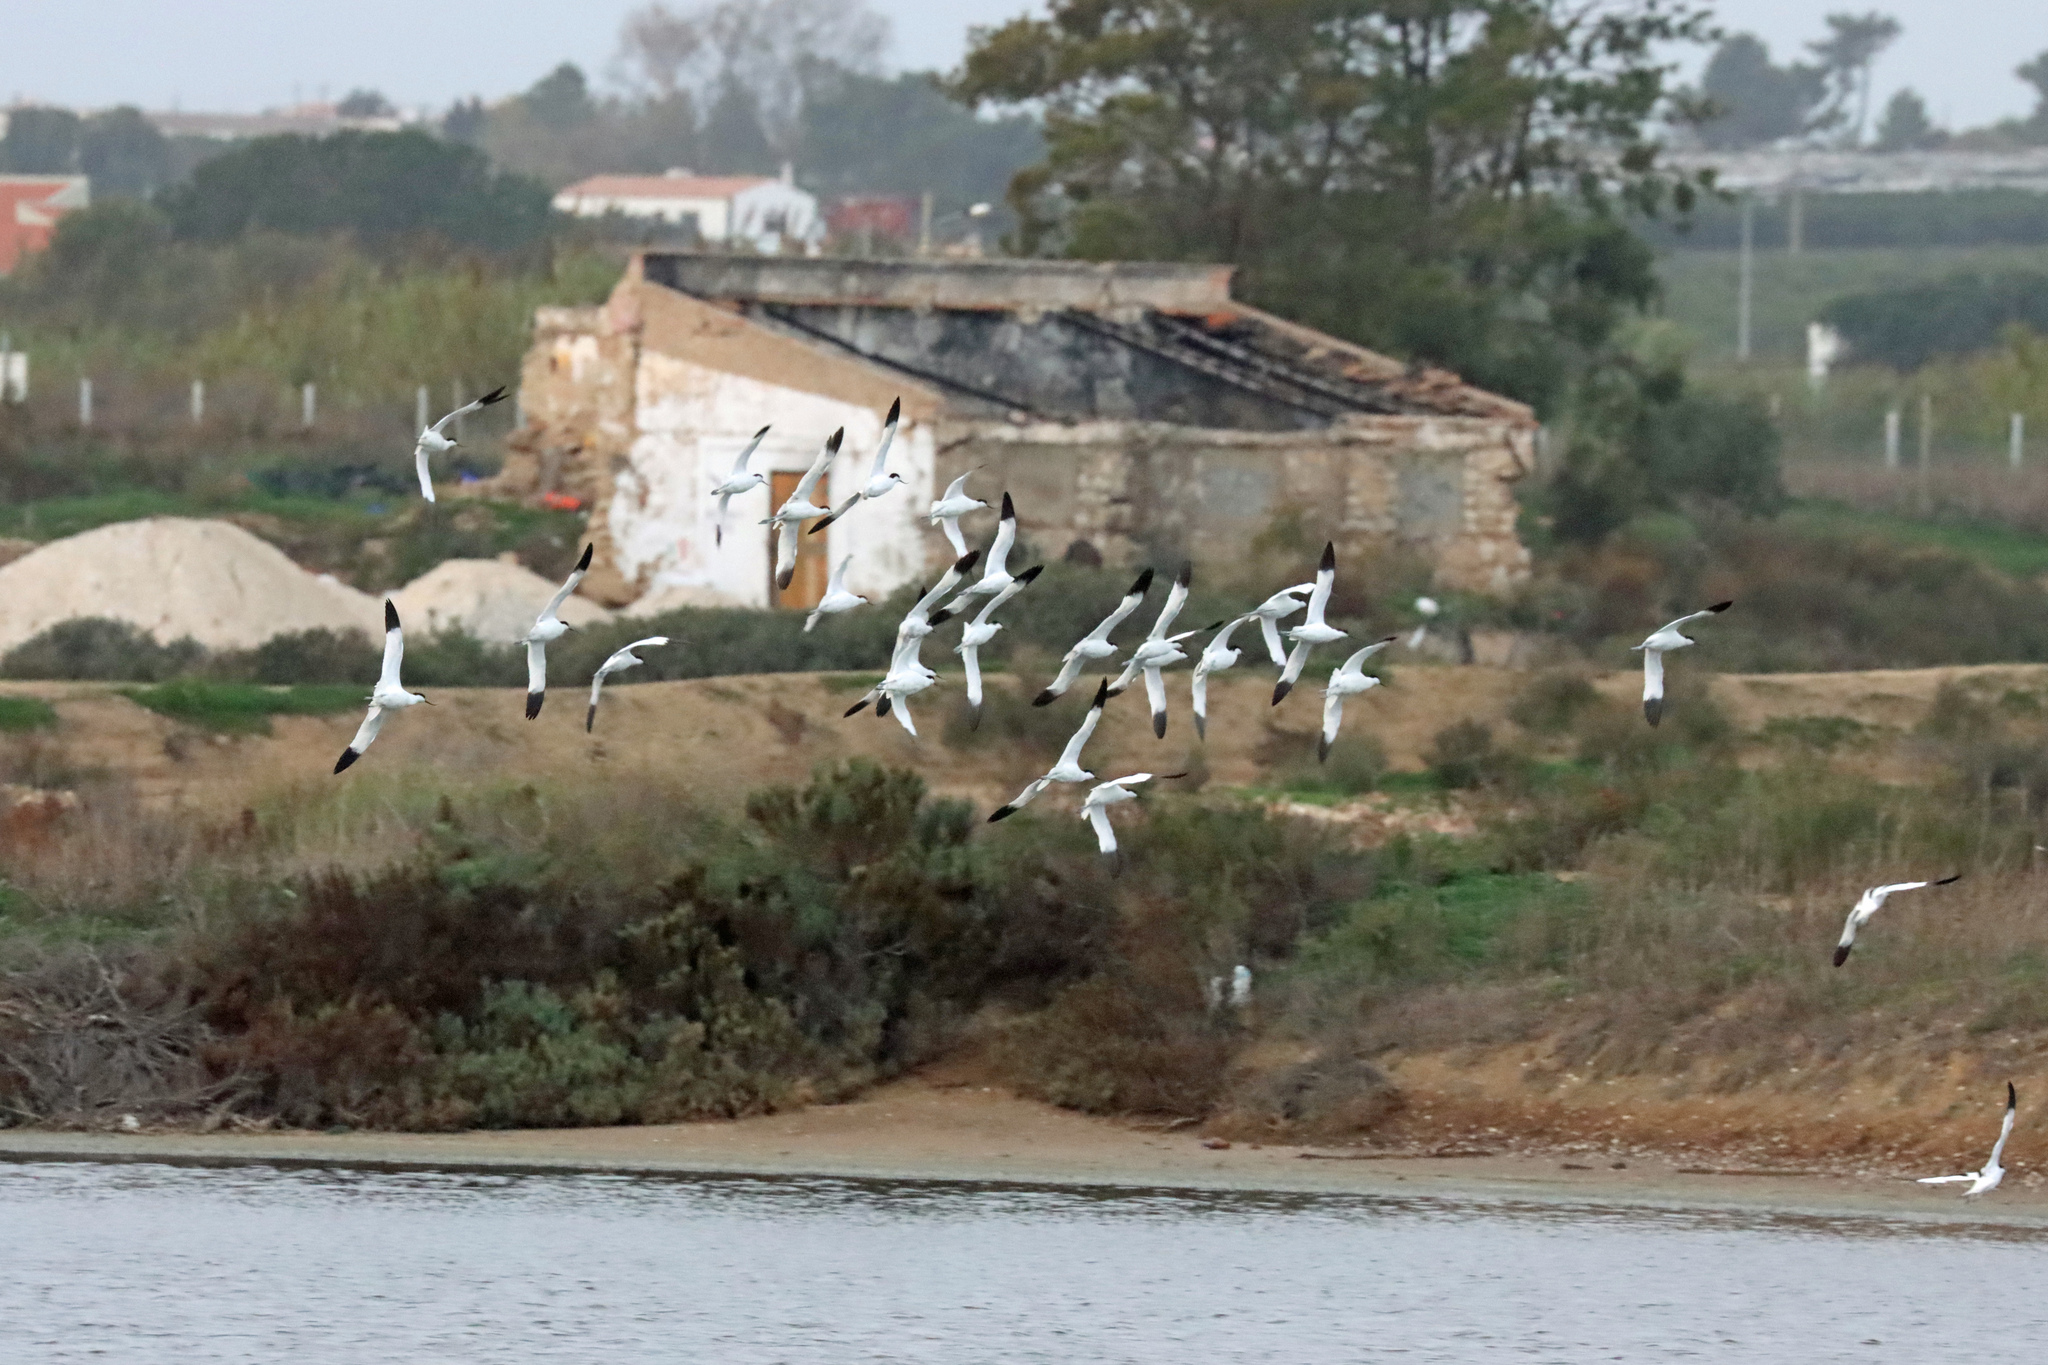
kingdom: Animalia
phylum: Chordata
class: Aves
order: Charadriiformes
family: Recurvirostridae
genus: Recurvirostra
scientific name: Recurvirostra avosetta
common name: Pied avocet
